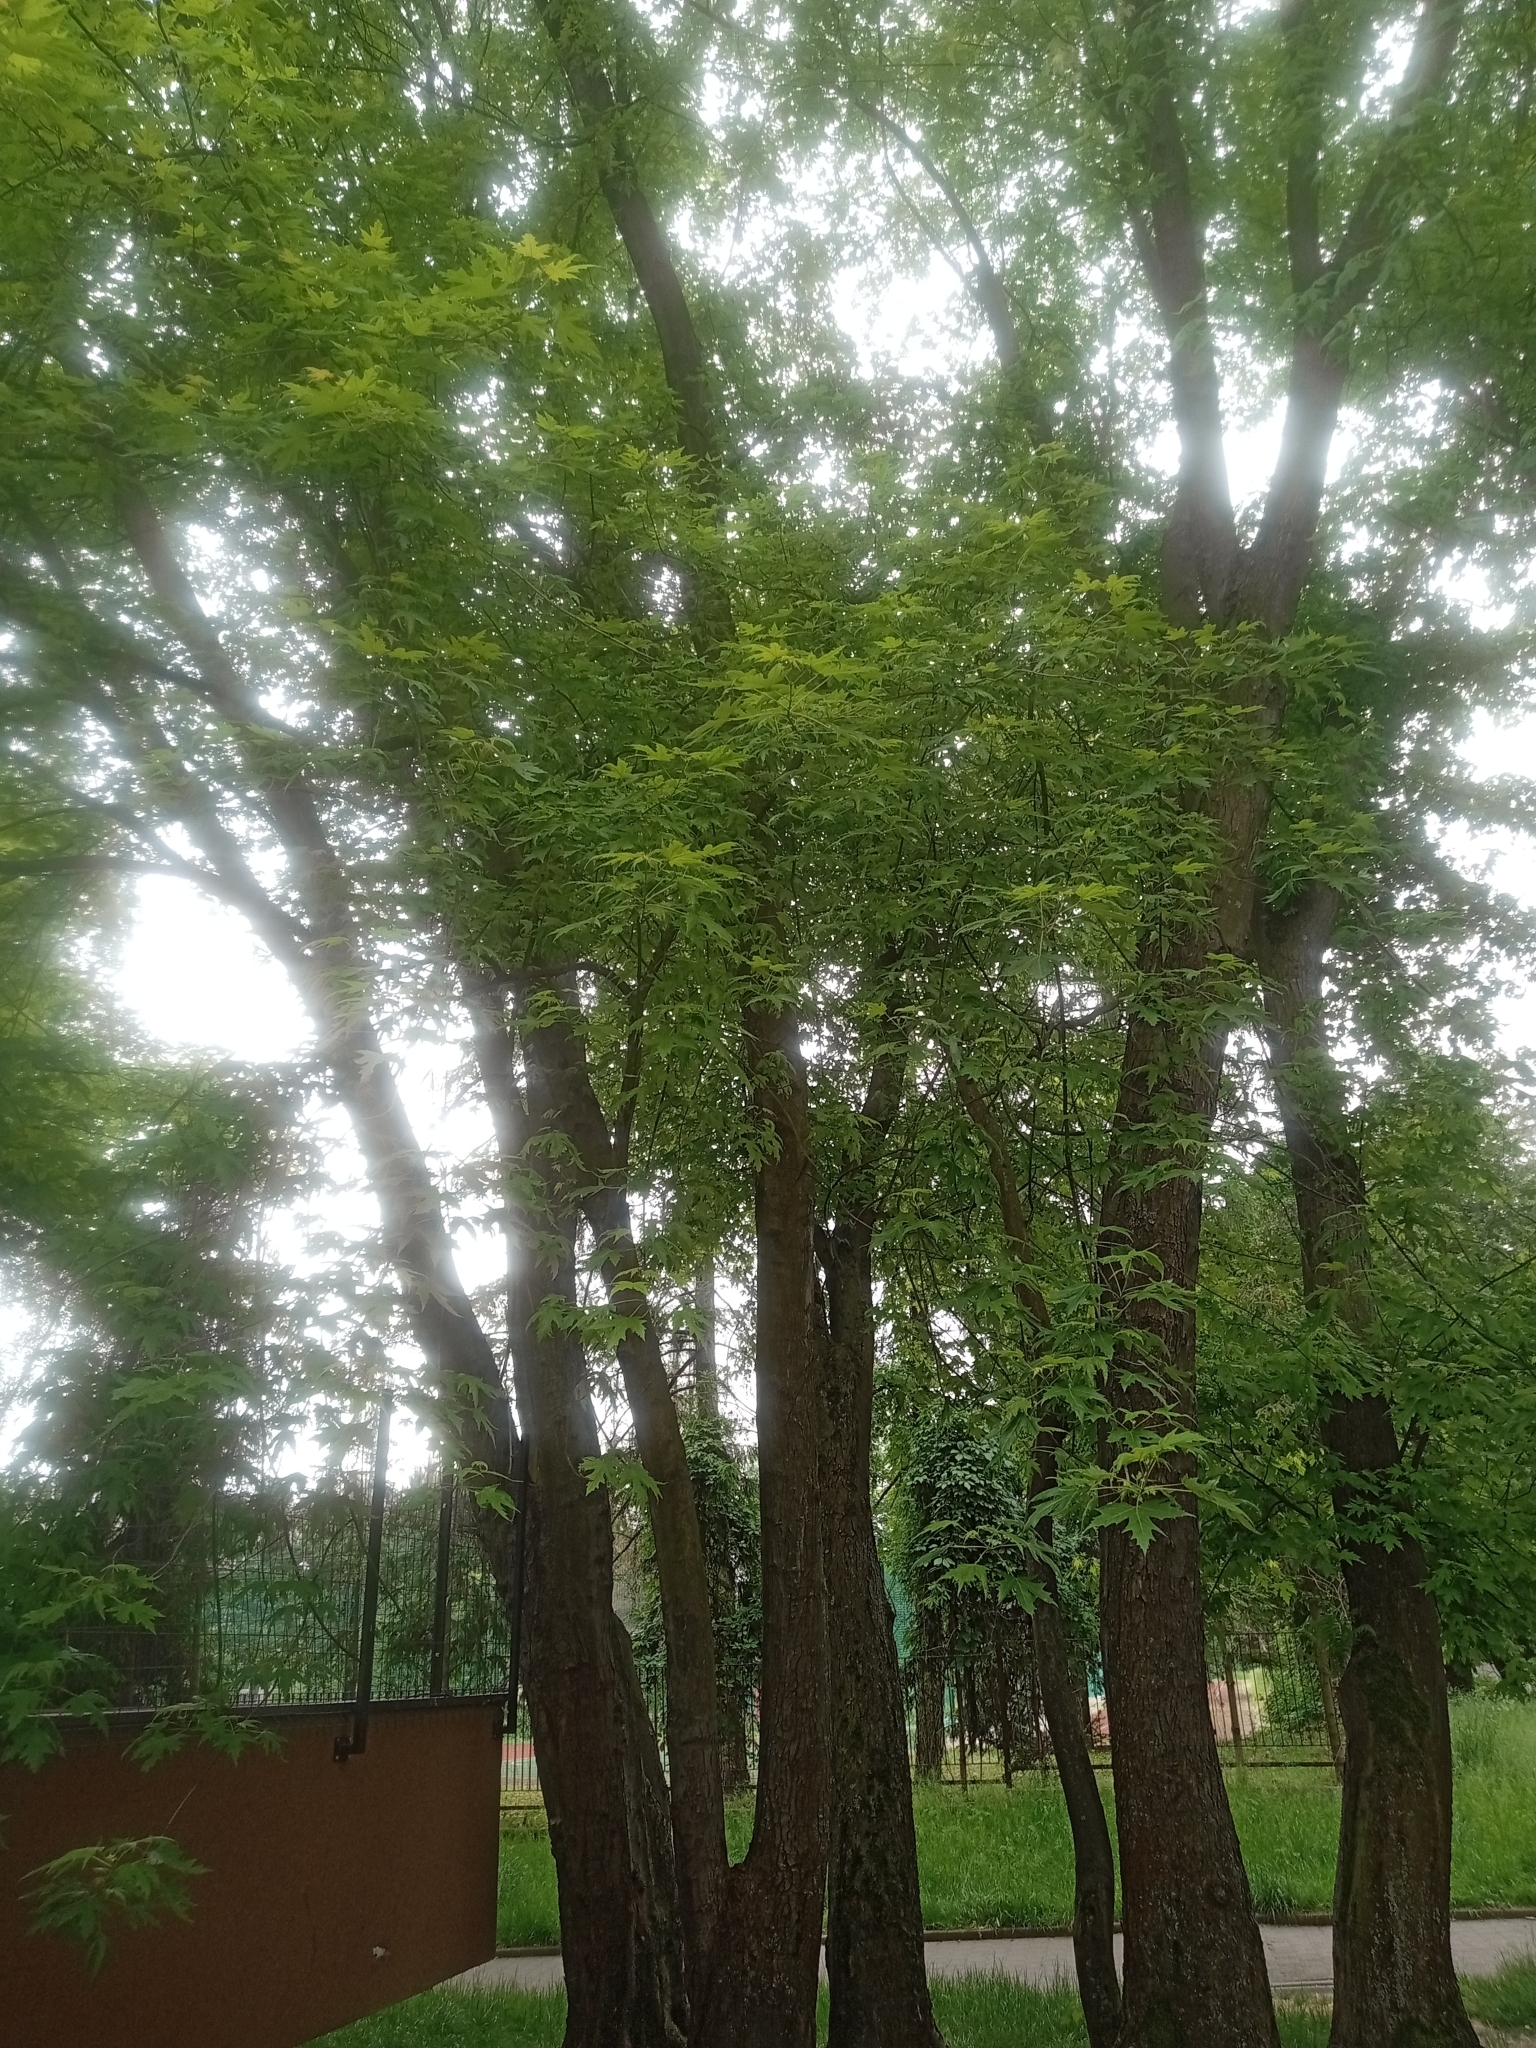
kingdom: Plantae
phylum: Tracheophyta
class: Magnoliopsida
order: Sapindales
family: Sapindaceae
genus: Acer
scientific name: Acer saccharinum
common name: Silver maple
